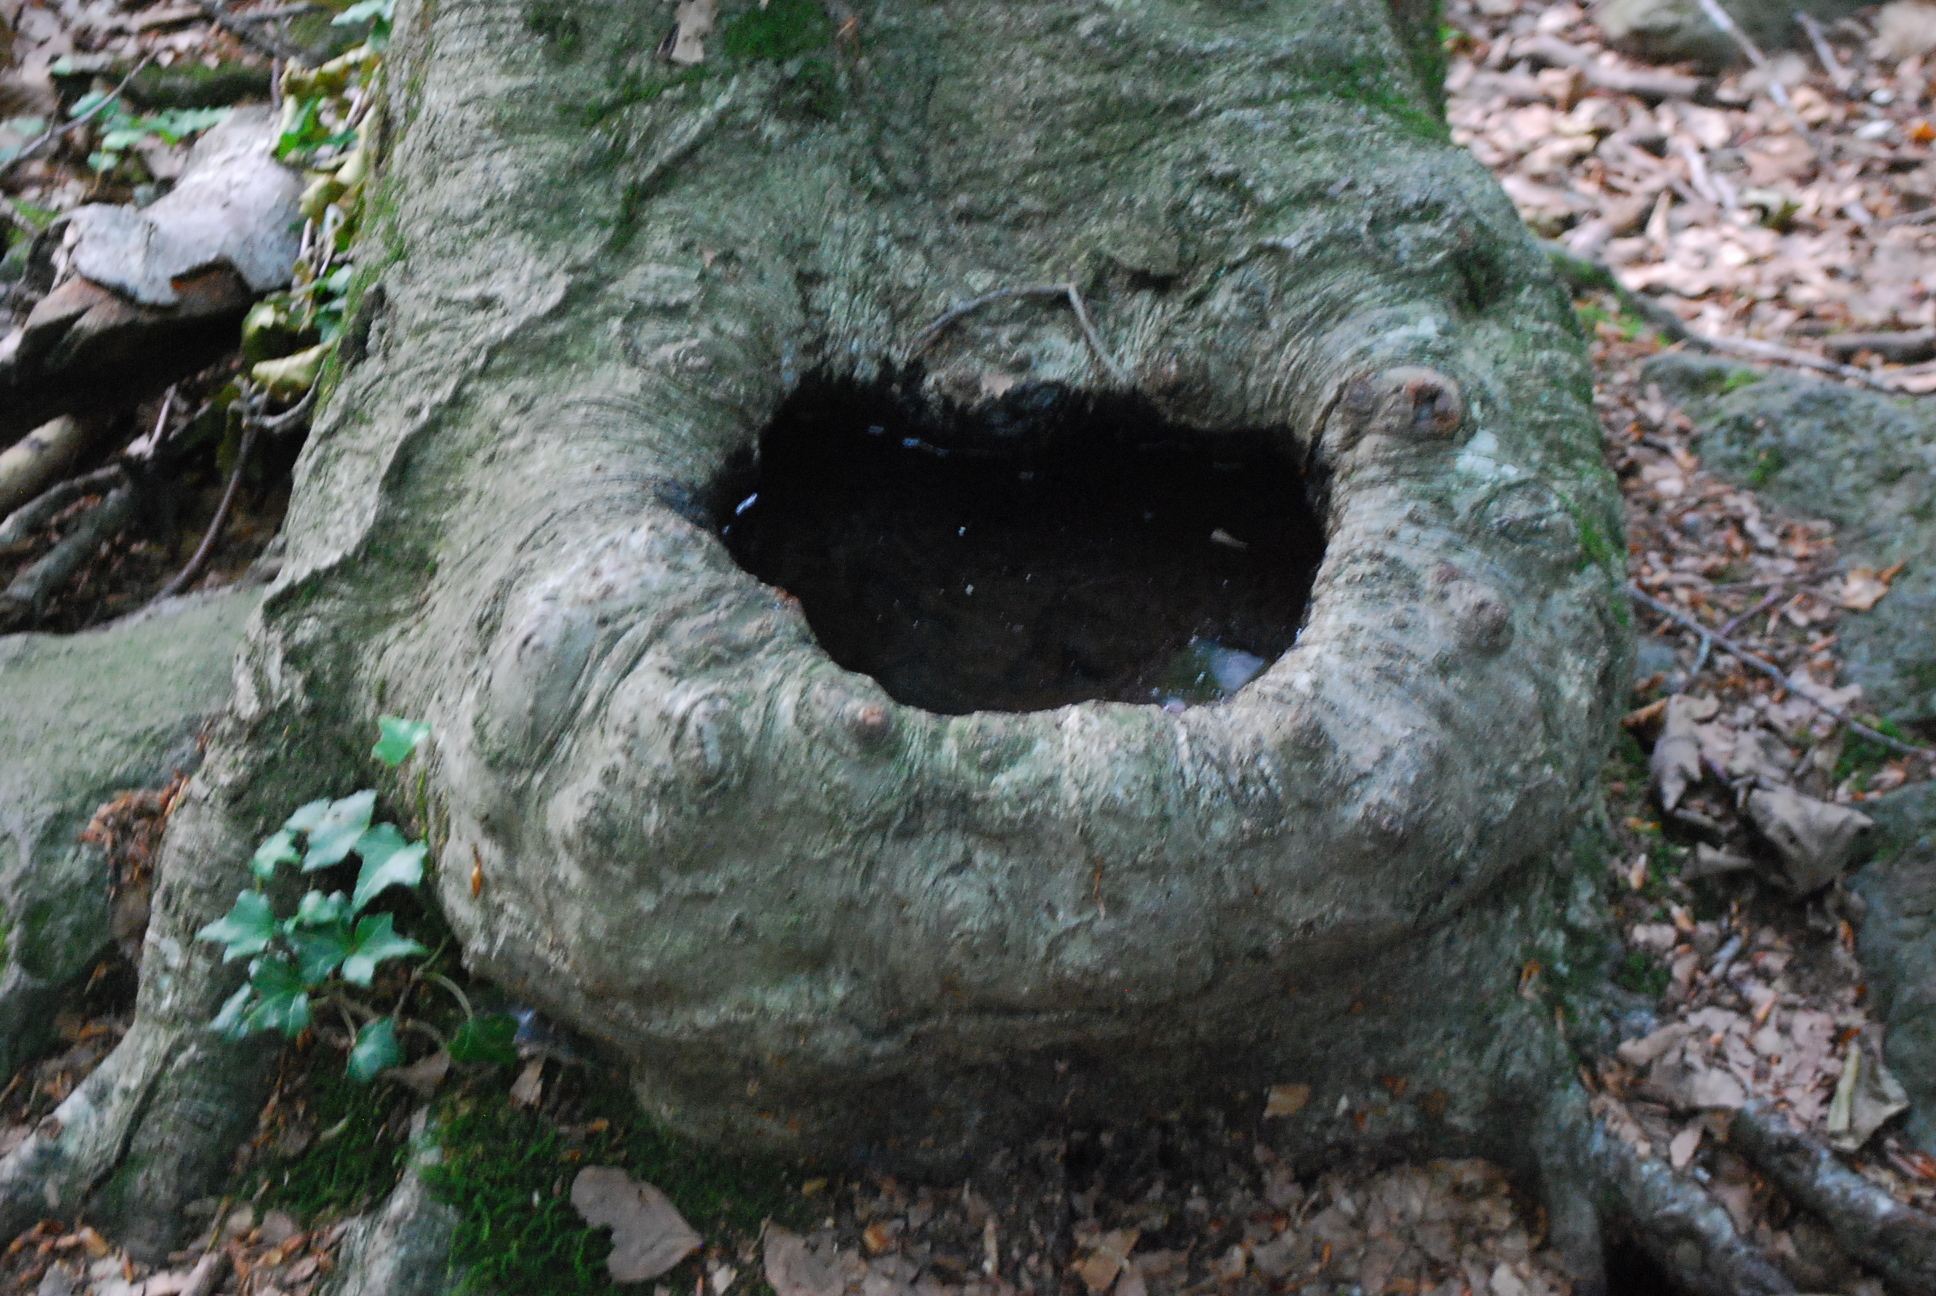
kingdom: Plantae
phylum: Tracheophyta
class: Magnoliopsida
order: Fagales
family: Fagaceae
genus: Fagus
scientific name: Fagus sylvatica
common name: Beech
